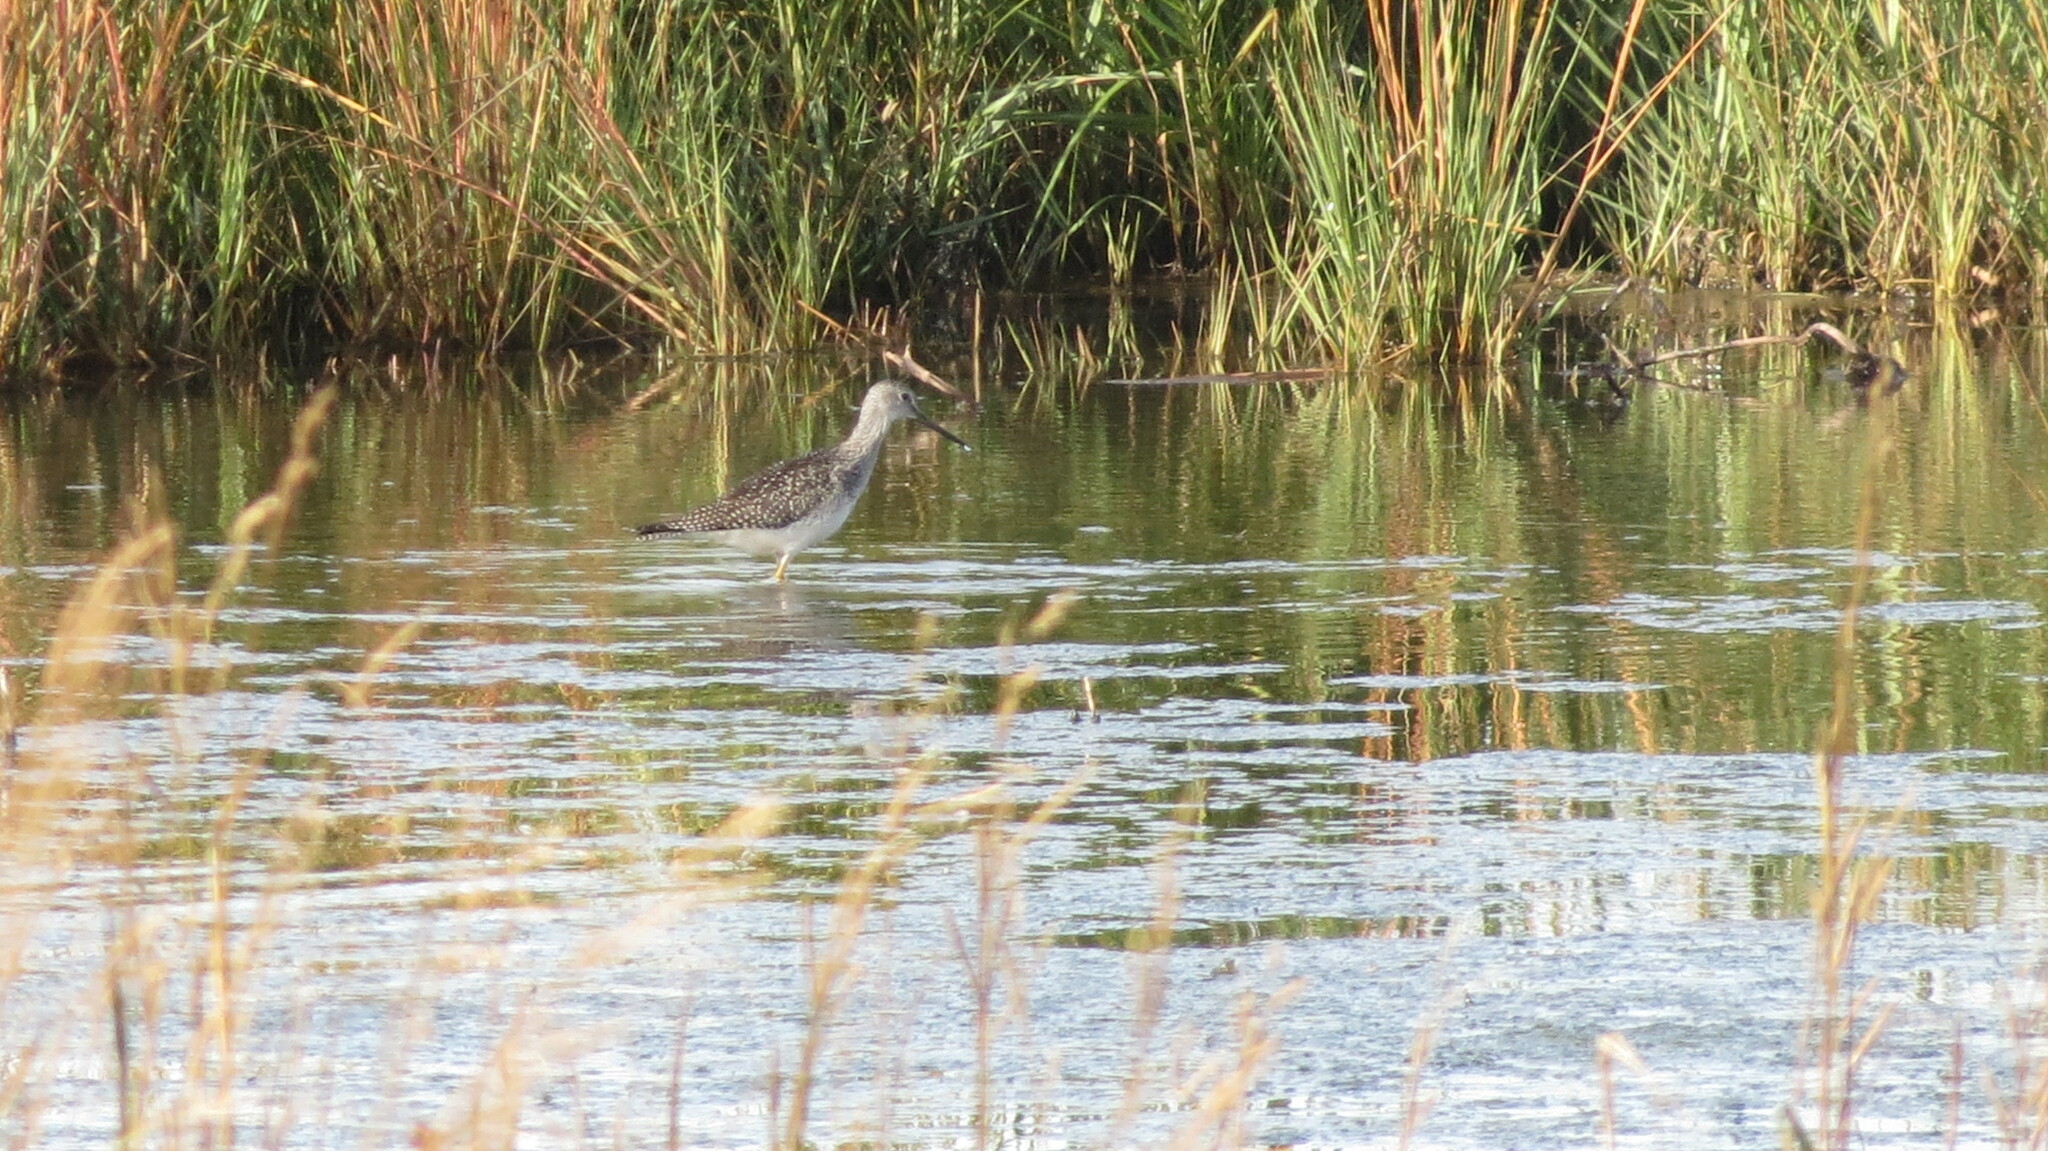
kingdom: Animalia
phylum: Chordata
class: Aves
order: Charadriiformes
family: Scolopacidae
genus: Tringa
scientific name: Tringa melanoleuca
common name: Greater yellowlegs
